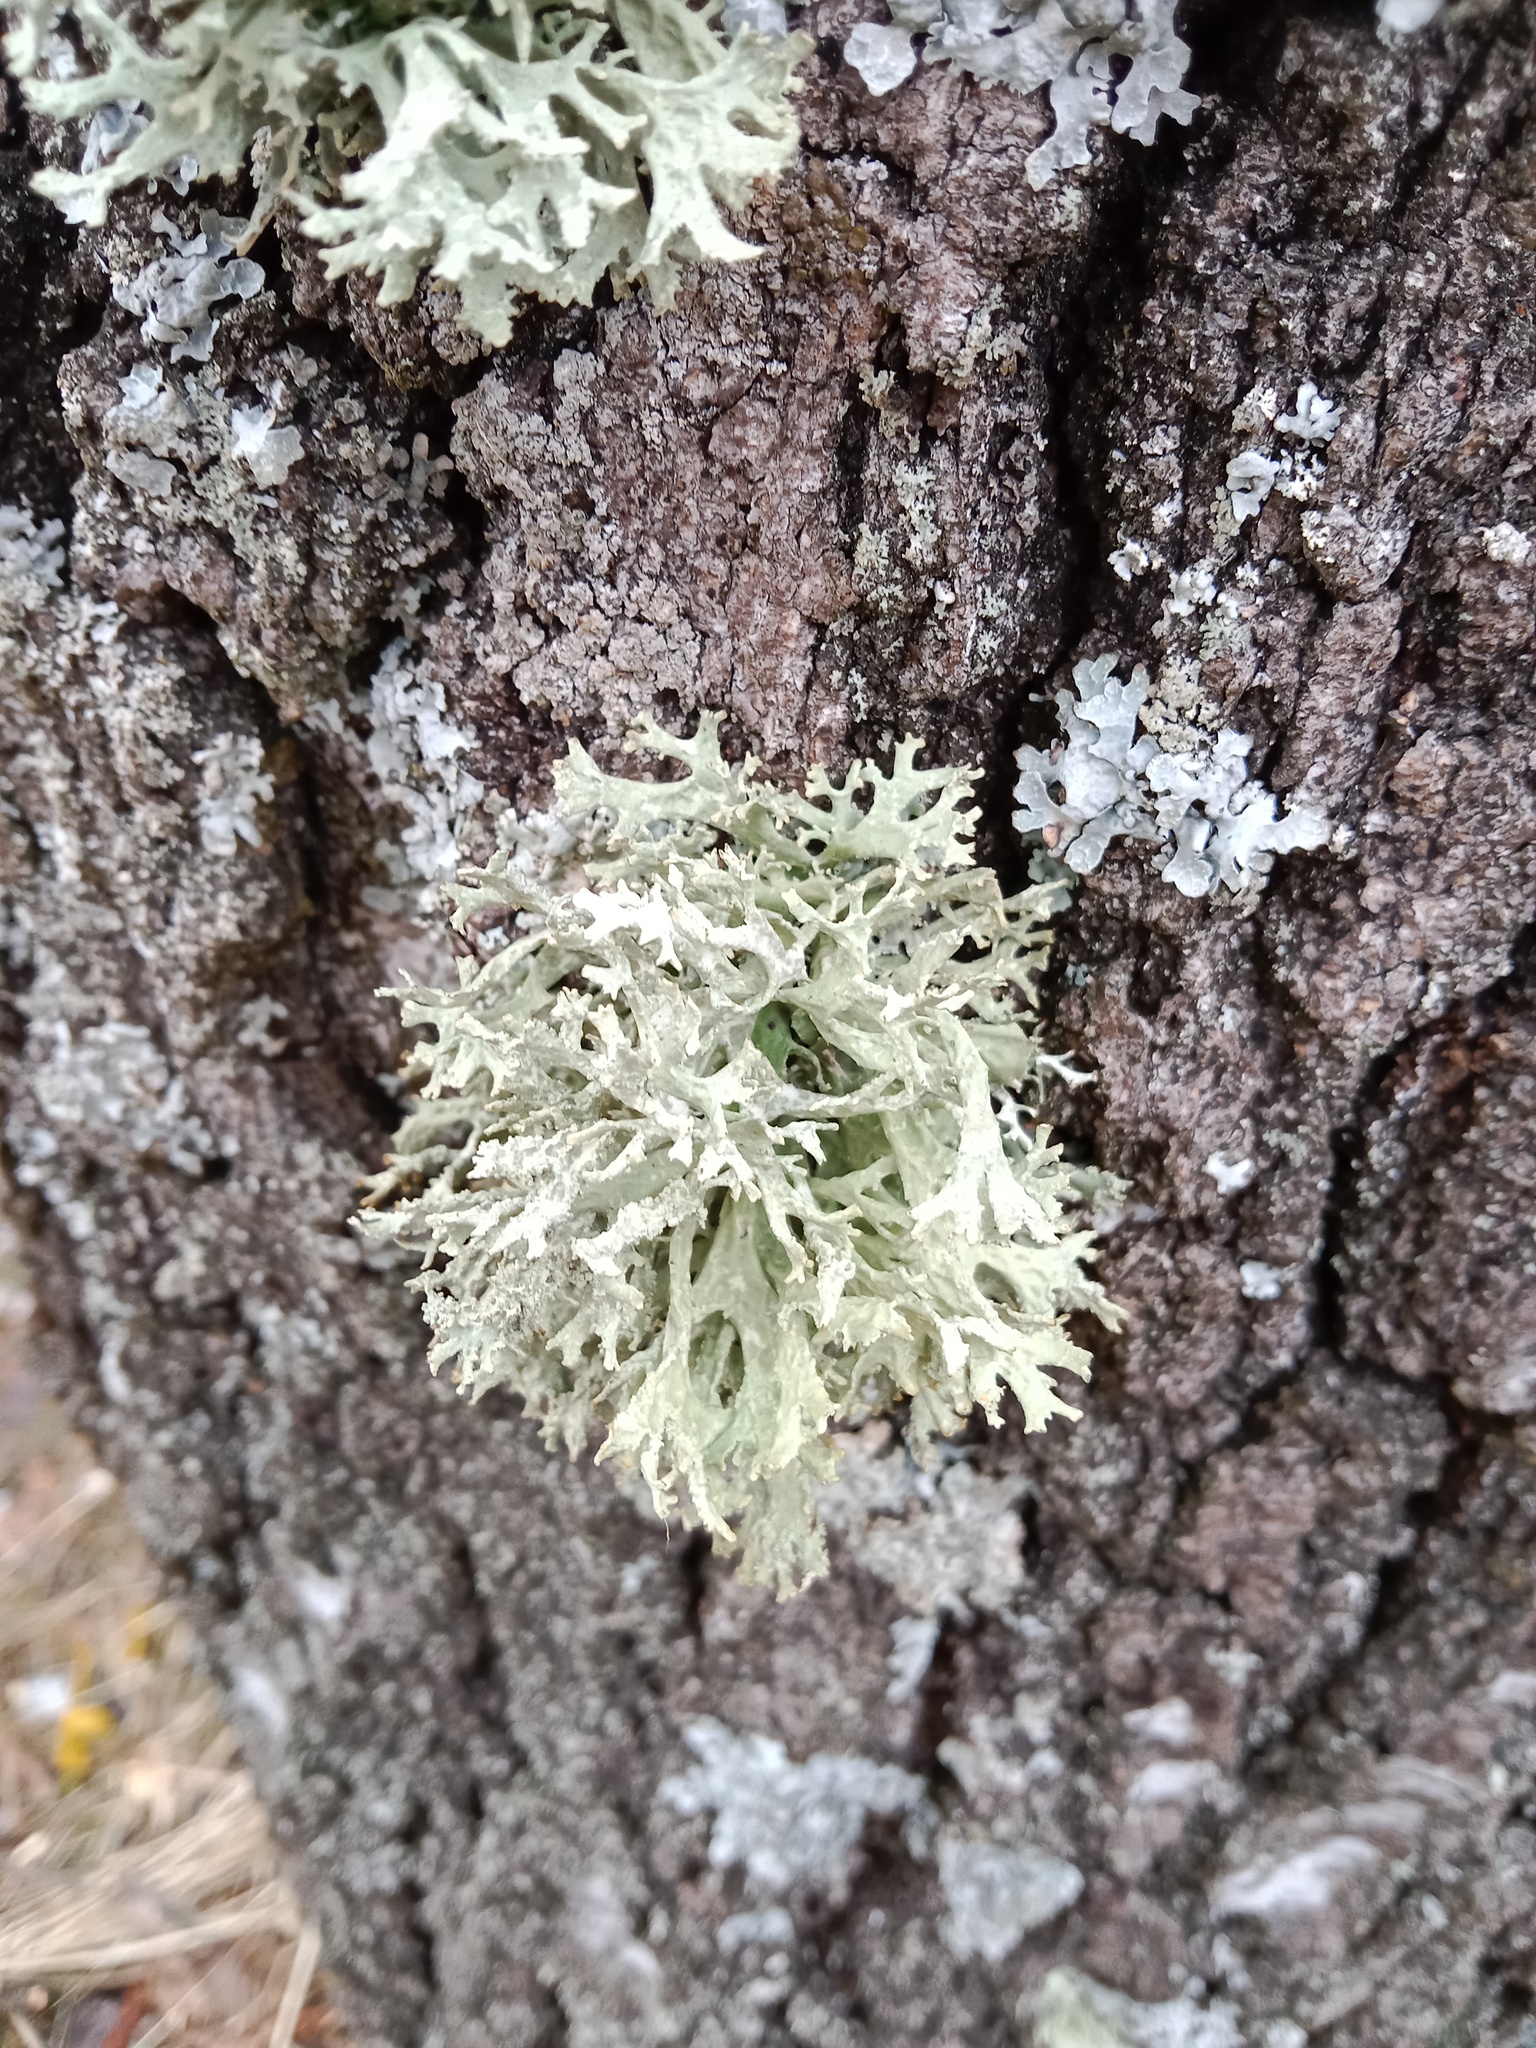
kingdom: Fungi
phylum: Ascomycota
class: Lecanoromycetes
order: Lecanorales
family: Parmeliaceae
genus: Evernia
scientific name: Evernia prunastri
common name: Oak moss
